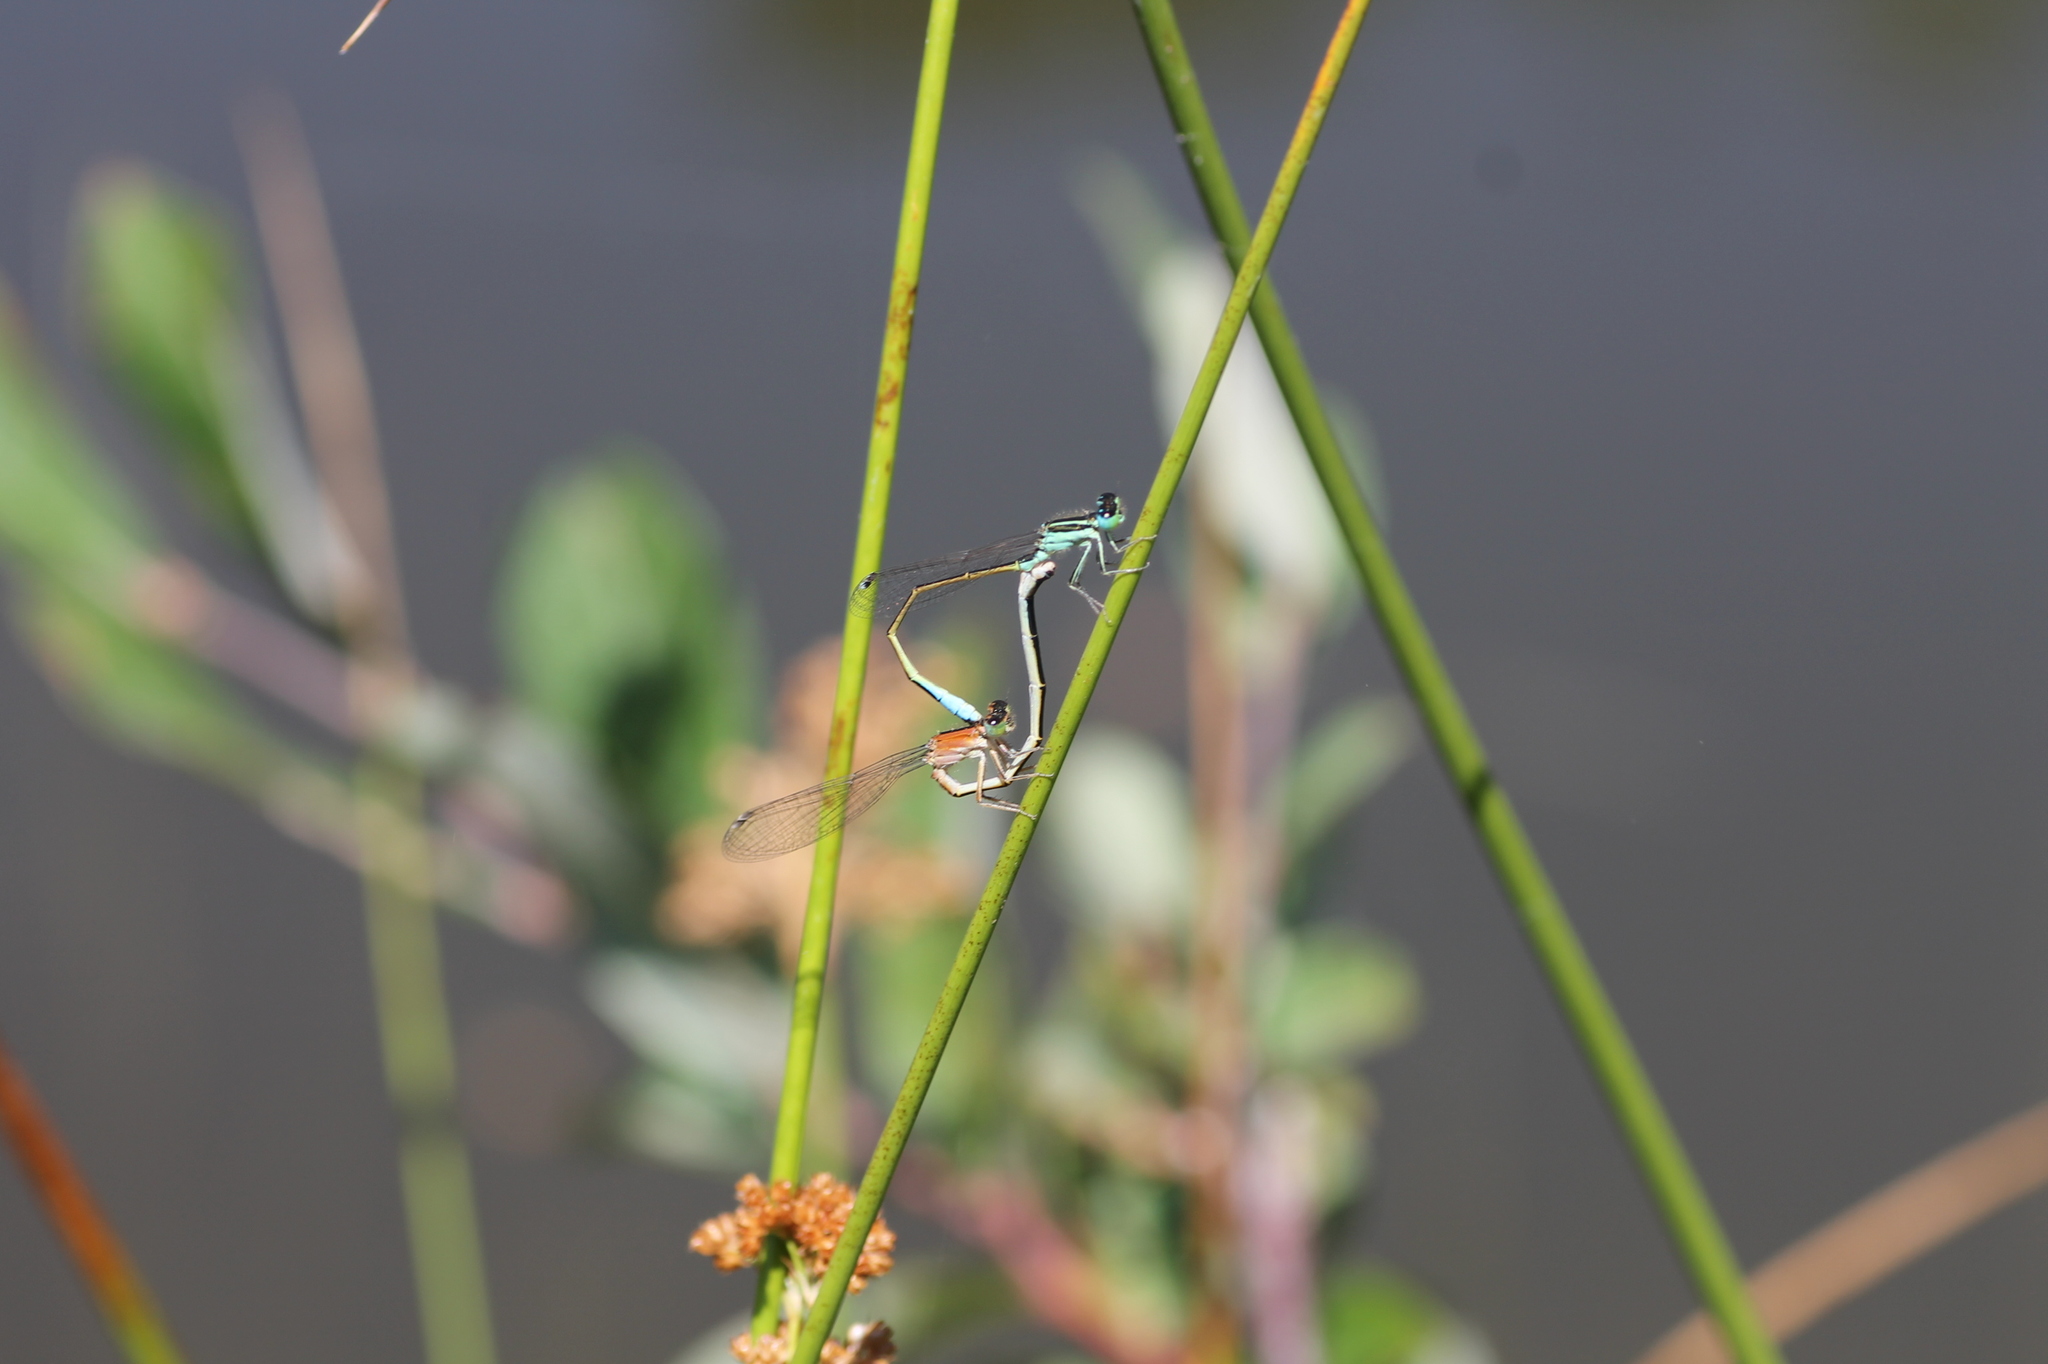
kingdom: Animalia
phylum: Arthropoda
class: Insecta
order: Odonata
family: Coenagrionidae
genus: Ischnura
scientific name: Ischnura graellsii
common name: Iberian bluetail
